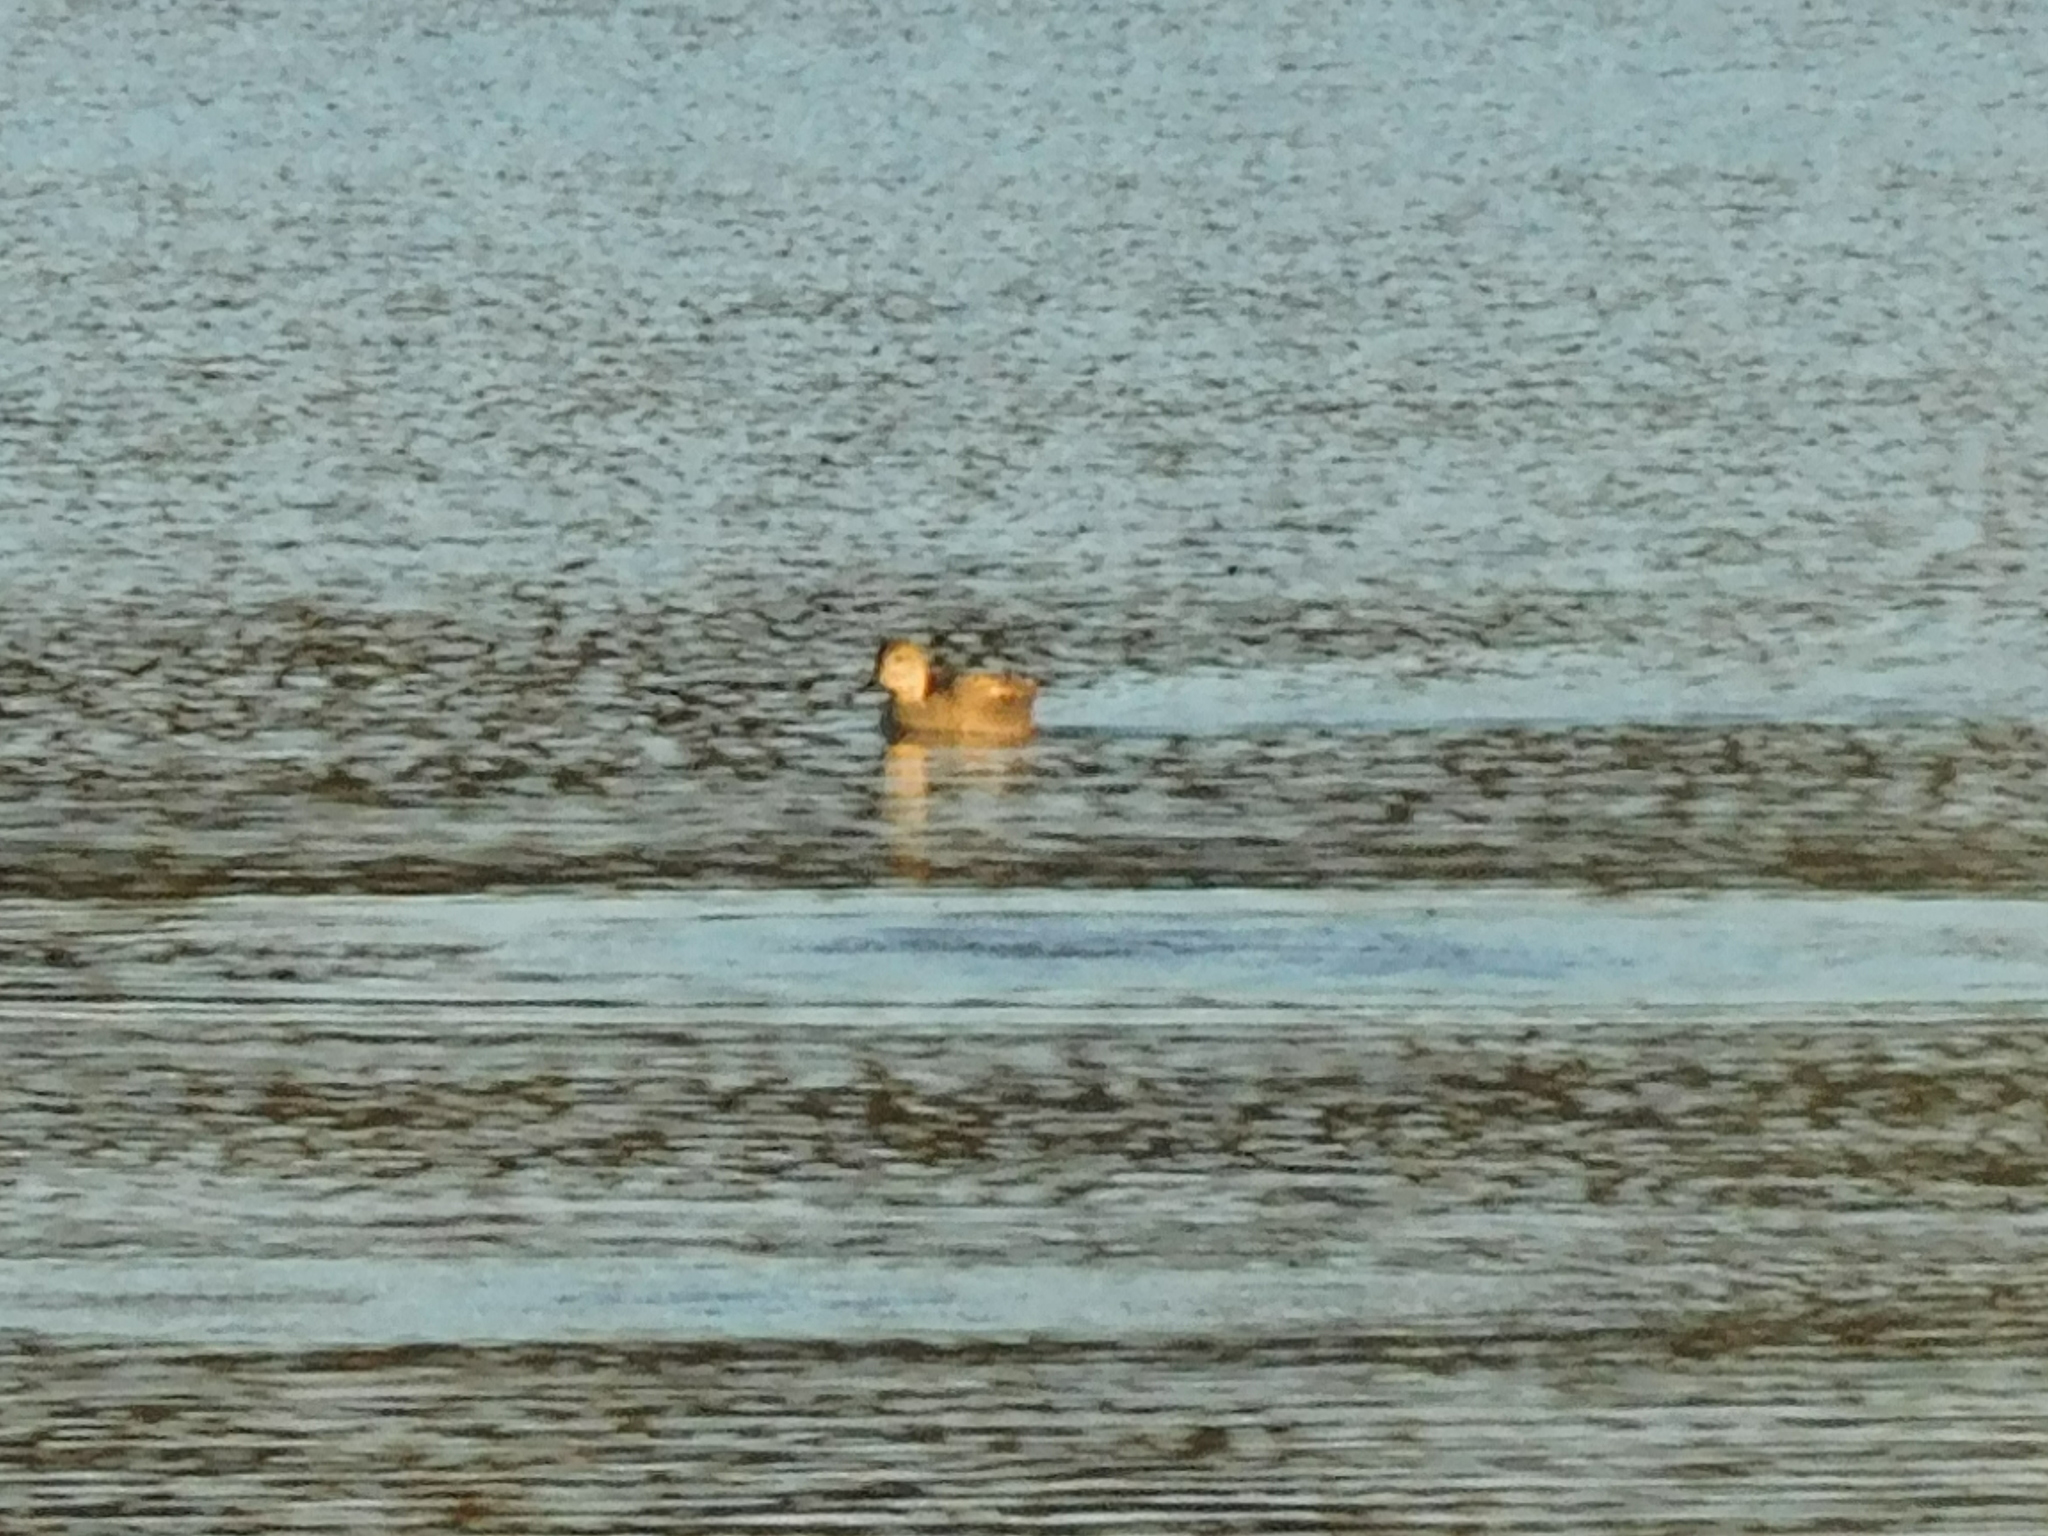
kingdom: Animalia
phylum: Chordata
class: Aves
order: Anseriformes
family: Anatidae
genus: Mareca
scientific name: Mareca strepera
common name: Gadwall
